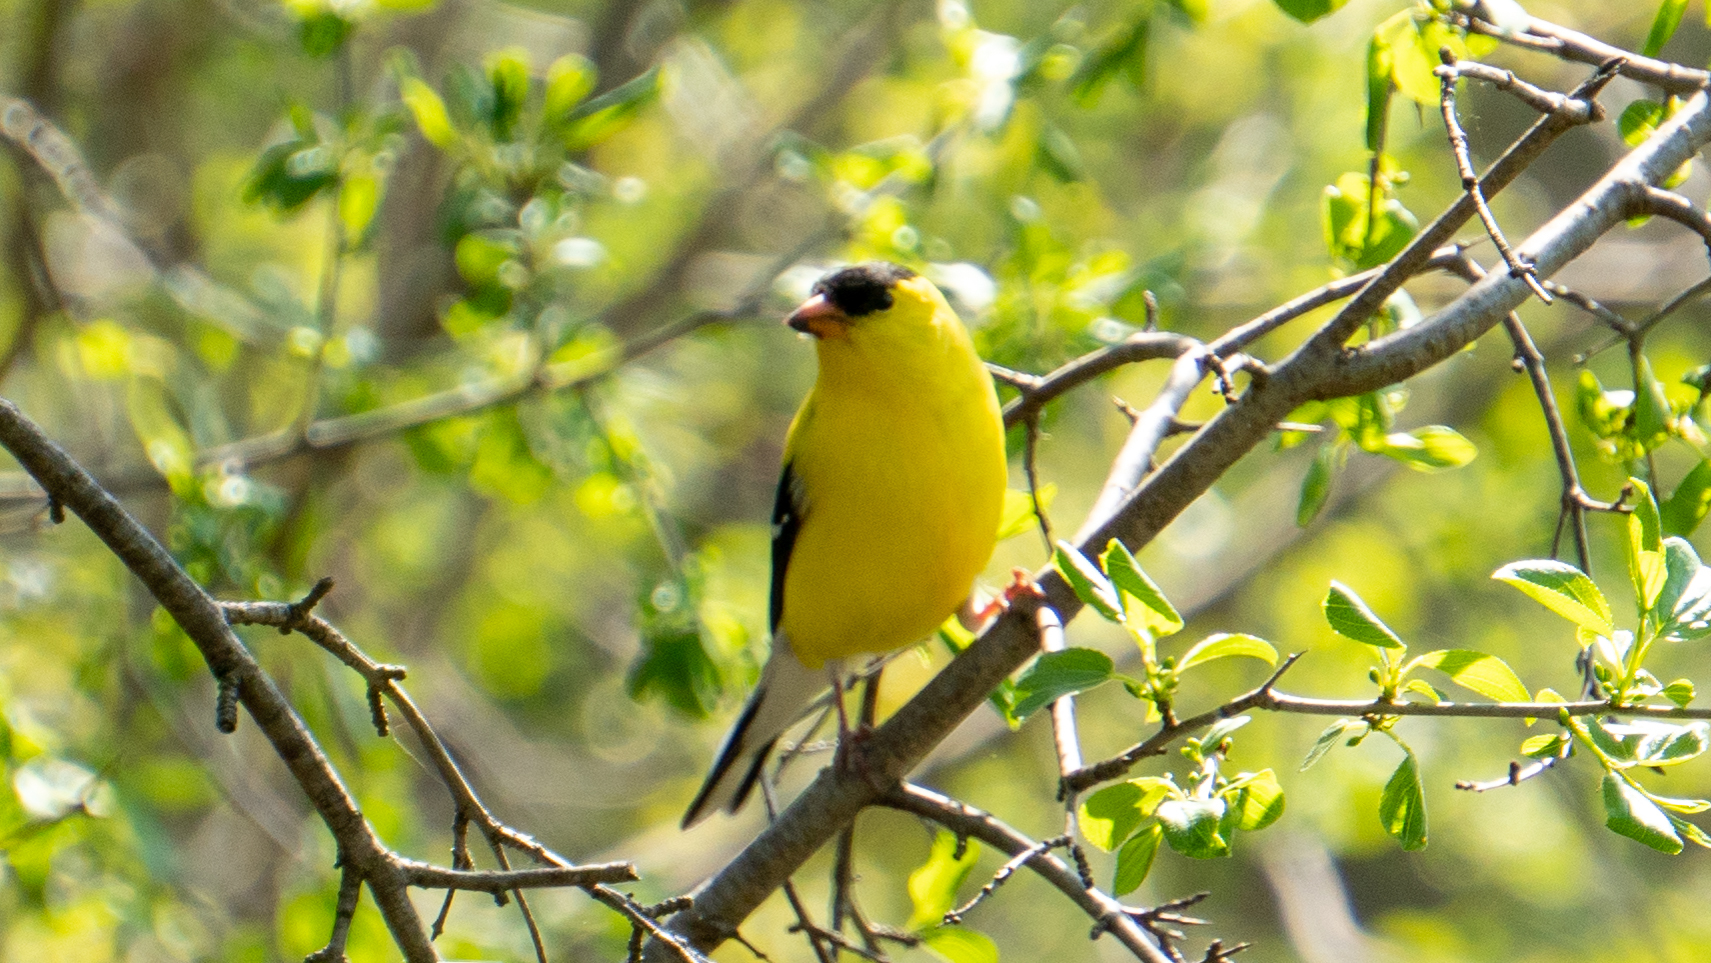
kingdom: Animalia
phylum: Chordata
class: Aves
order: Passeriformes
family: Fringillidae
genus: Spinus
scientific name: Spinus tristis
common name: American goldfinch
